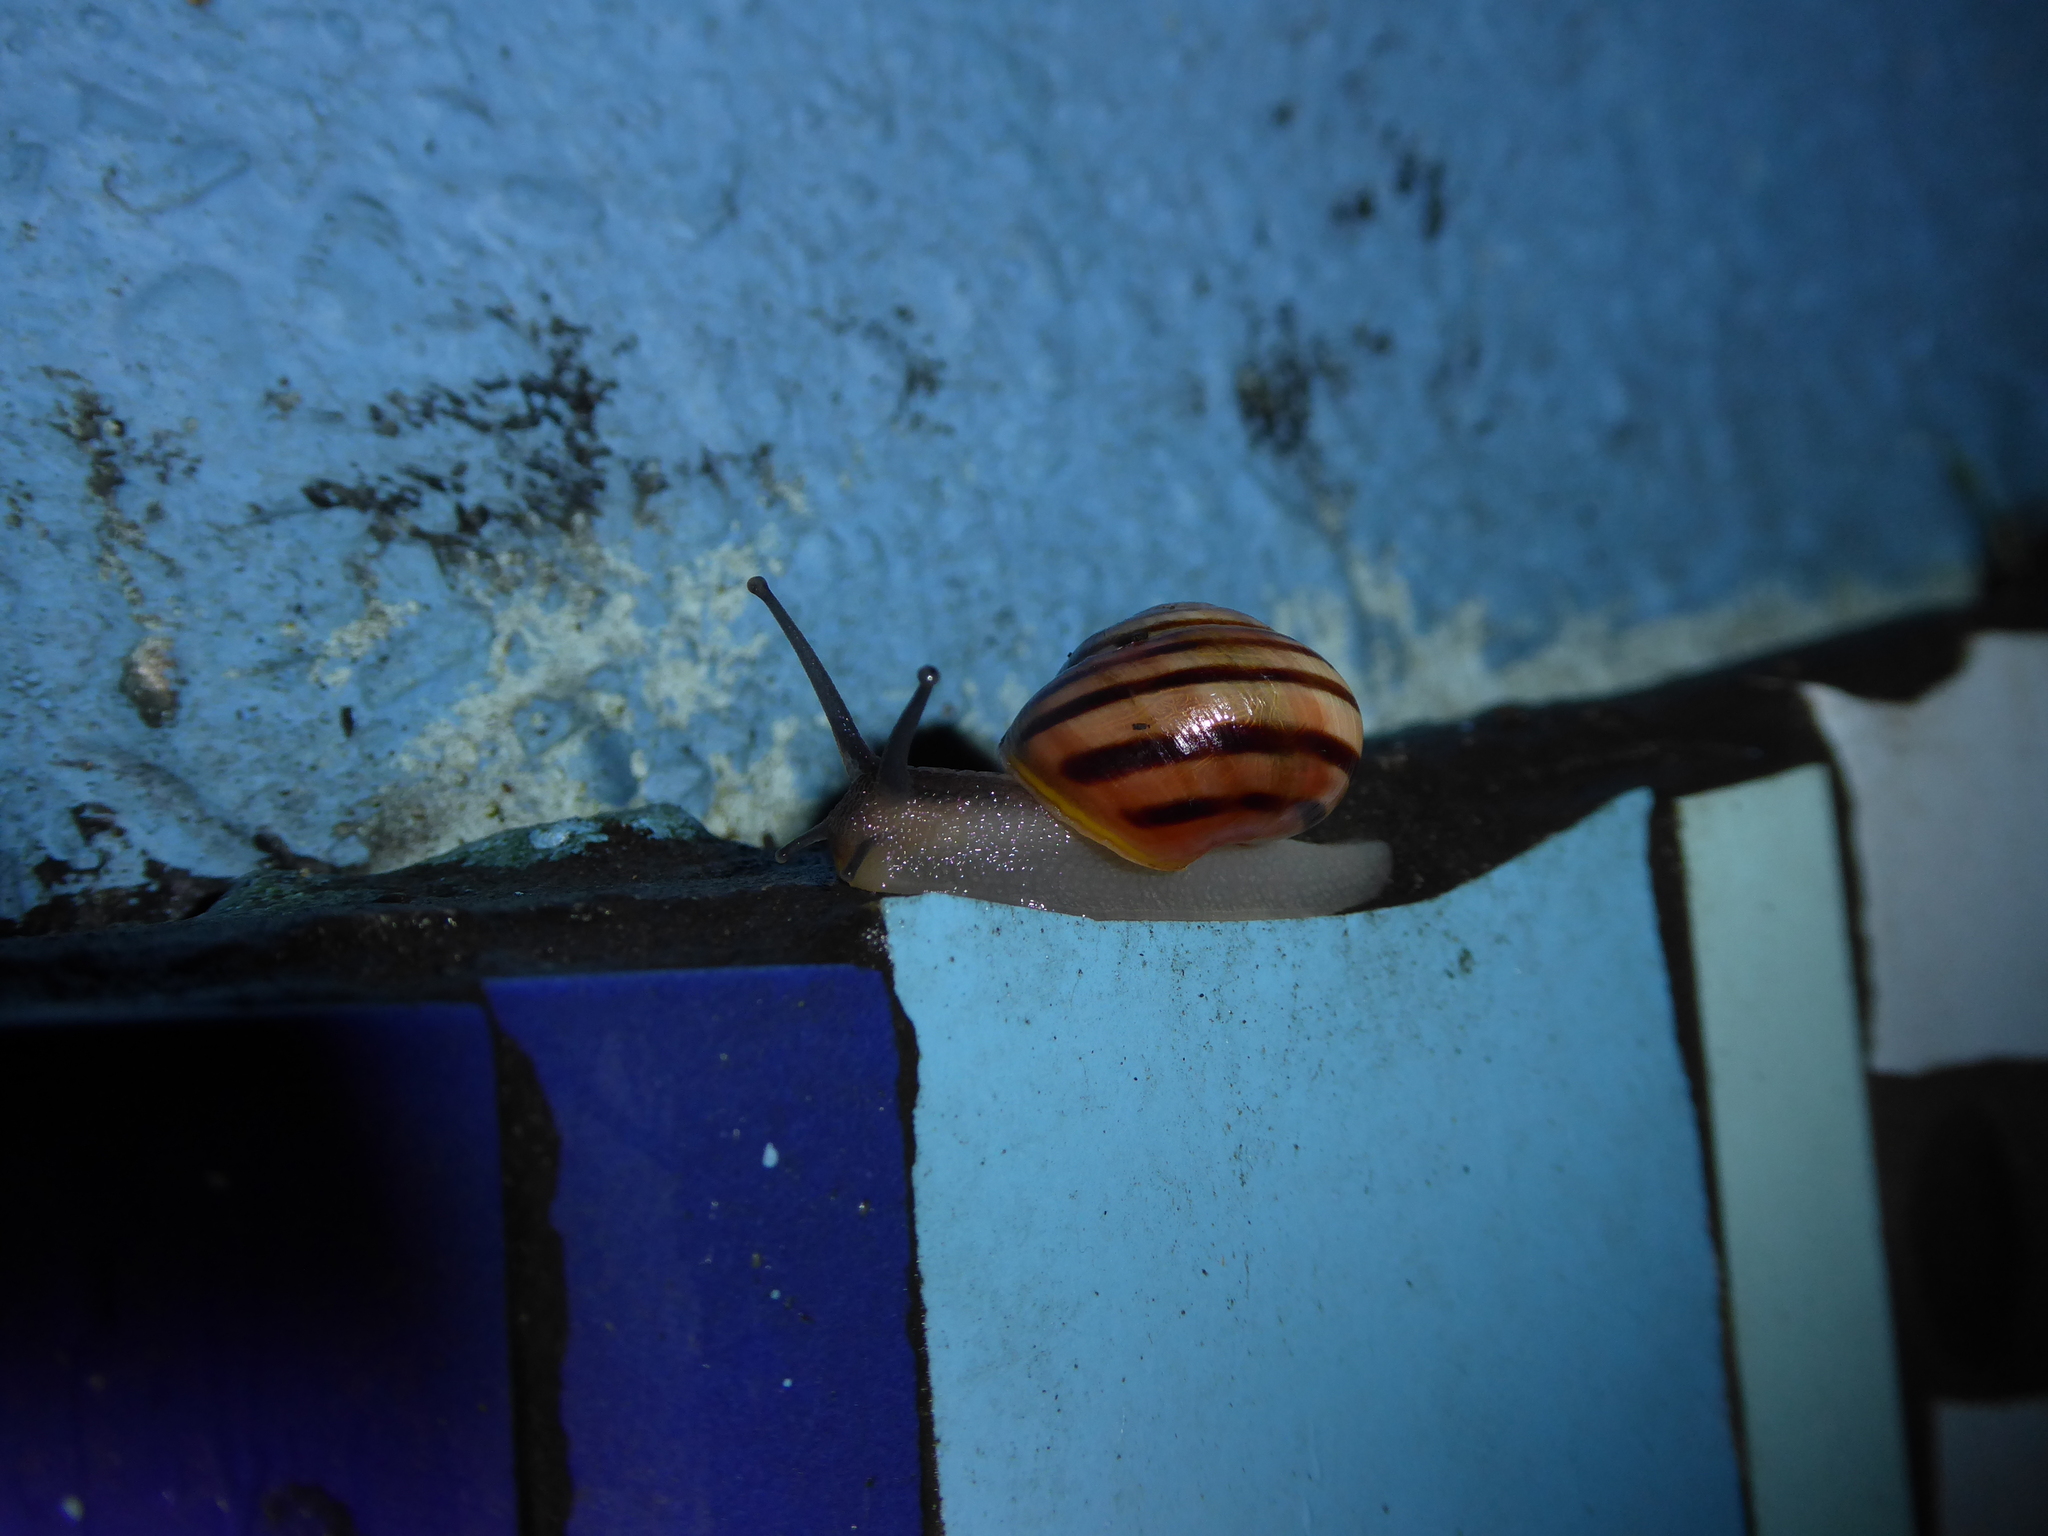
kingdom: Animalia
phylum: Mollusca
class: Gastropoda
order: Stylommatophora
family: Helicidae
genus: Cepaea
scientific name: Cepaea hortensis
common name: White-lip gardensnail
